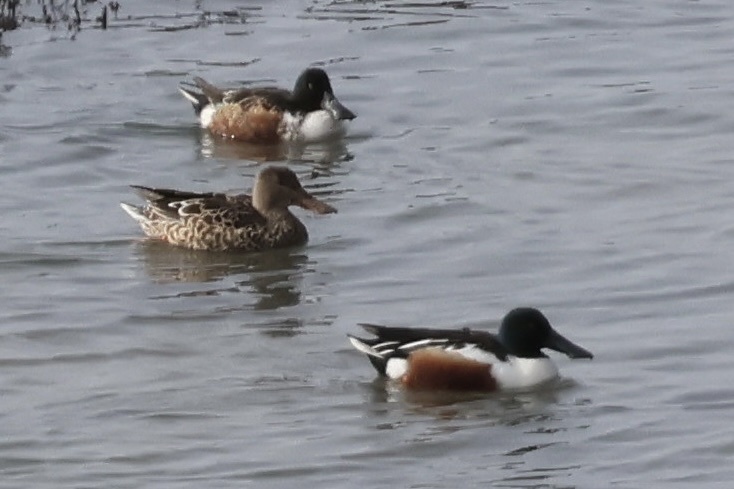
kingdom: Animalia
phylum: Chordata
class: Aves
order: Anseriformes
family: Anatidae
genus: Spatula
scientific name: Spatula clypeata
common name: Northern shoveler
